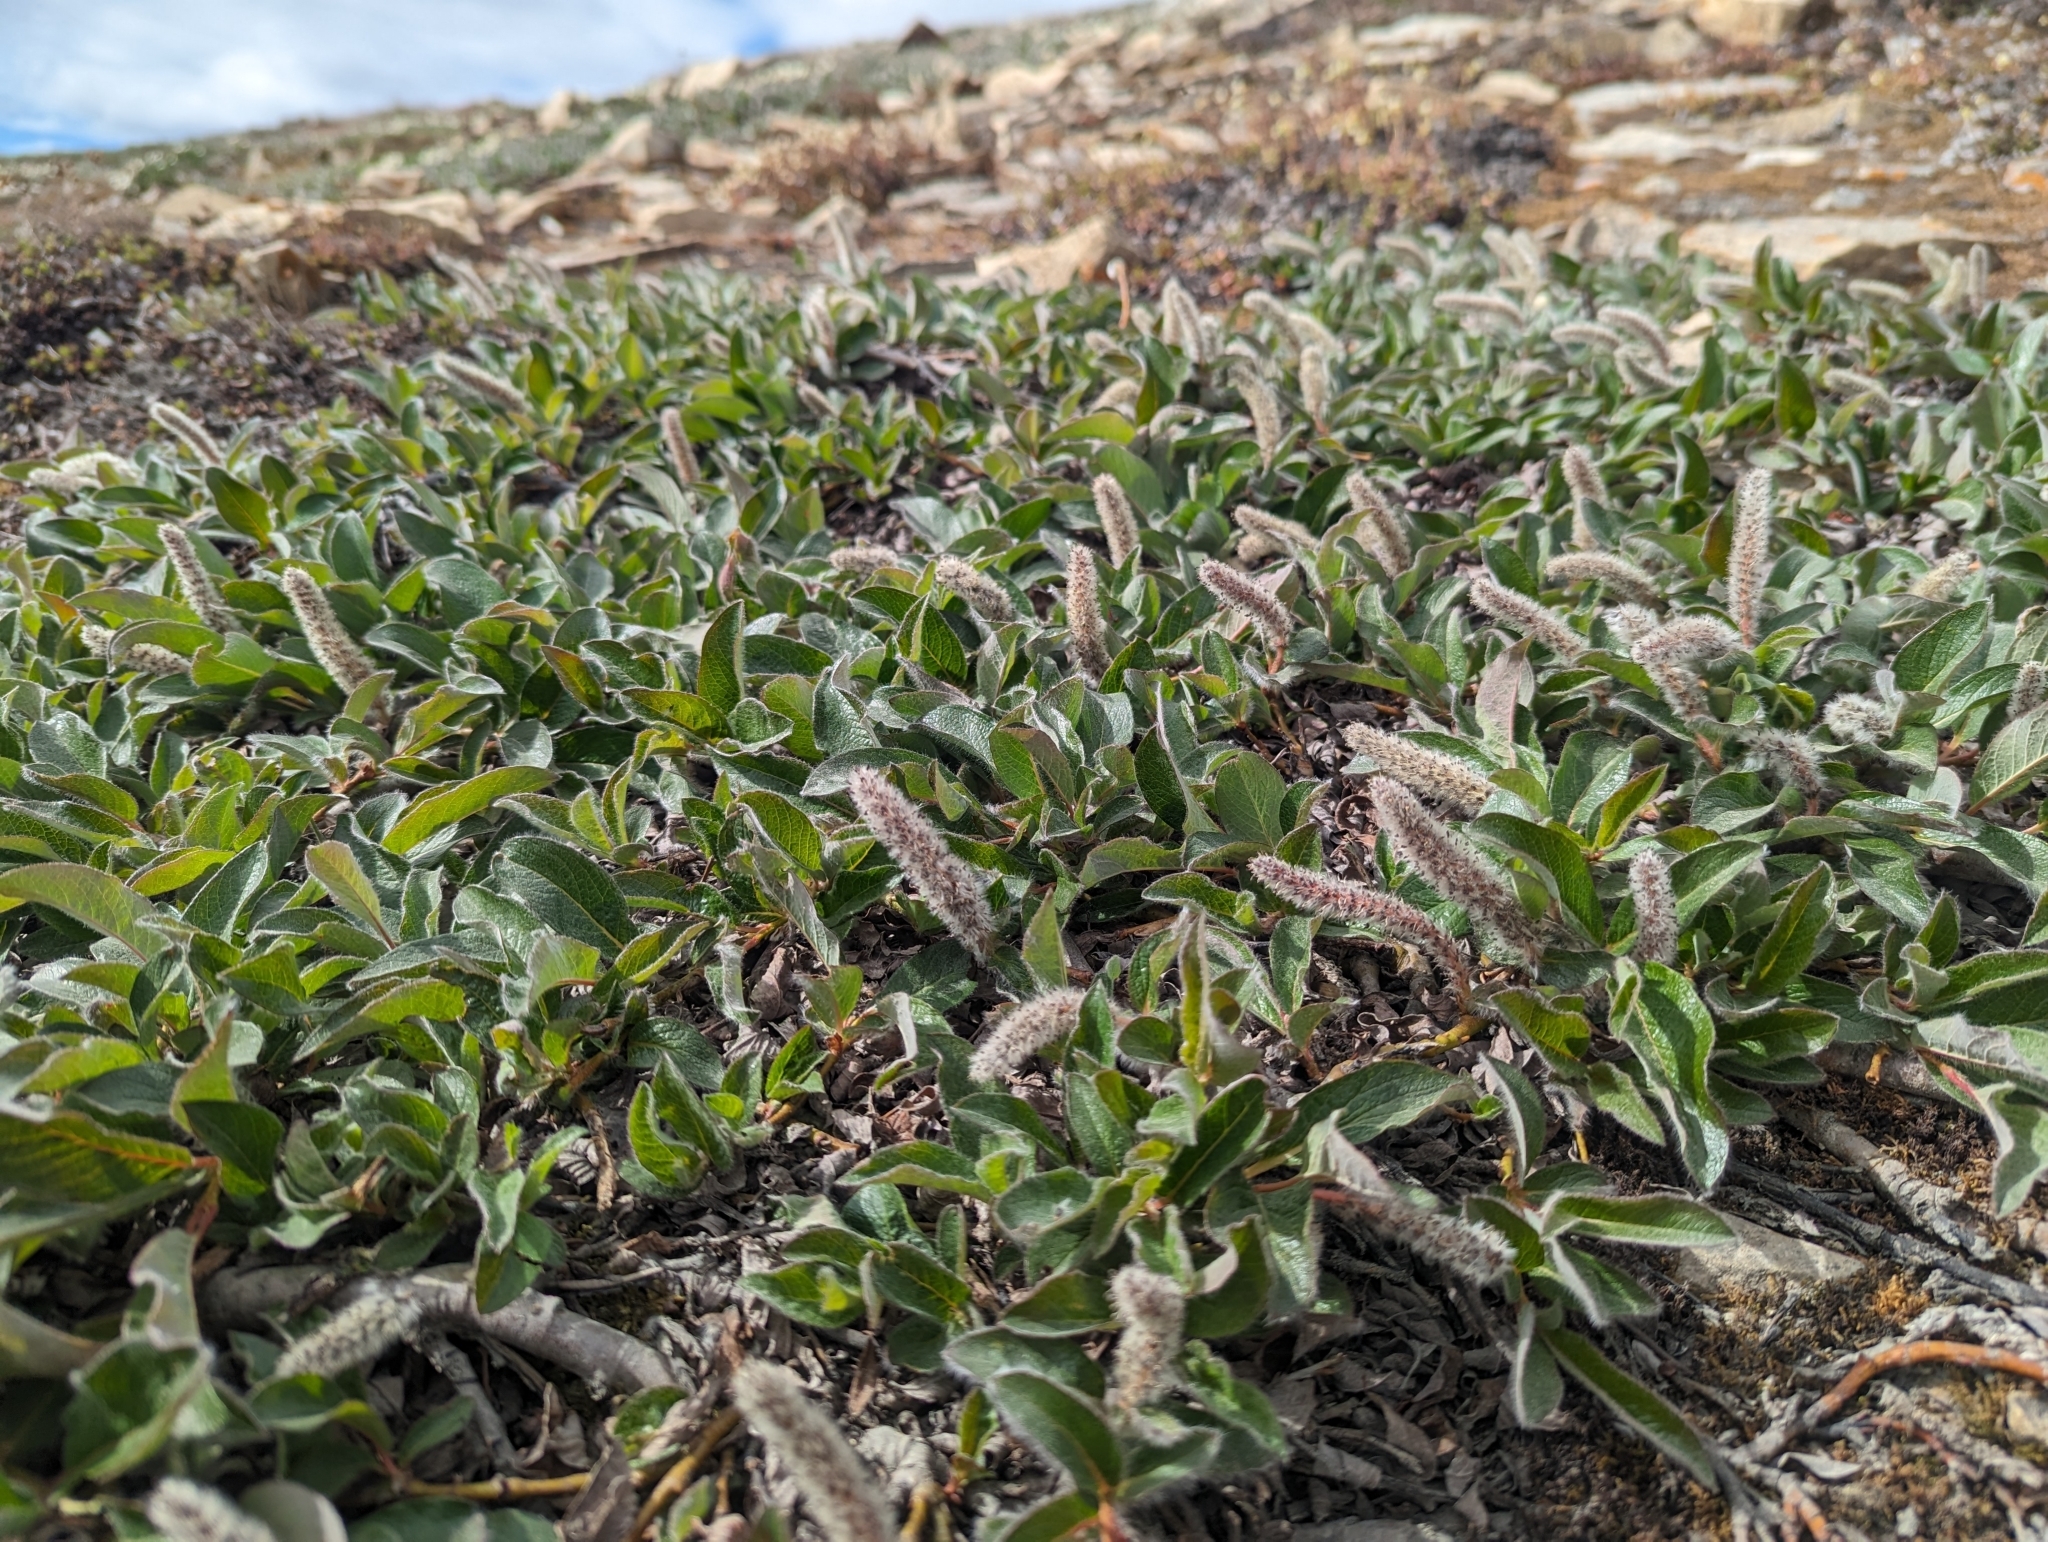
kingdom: Plantae
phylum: Tracheophyta
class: Magnoliopsida
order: Malpighiales
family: Salicaceae
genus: Salix
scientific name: Salix arctica
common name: Arctic willow
